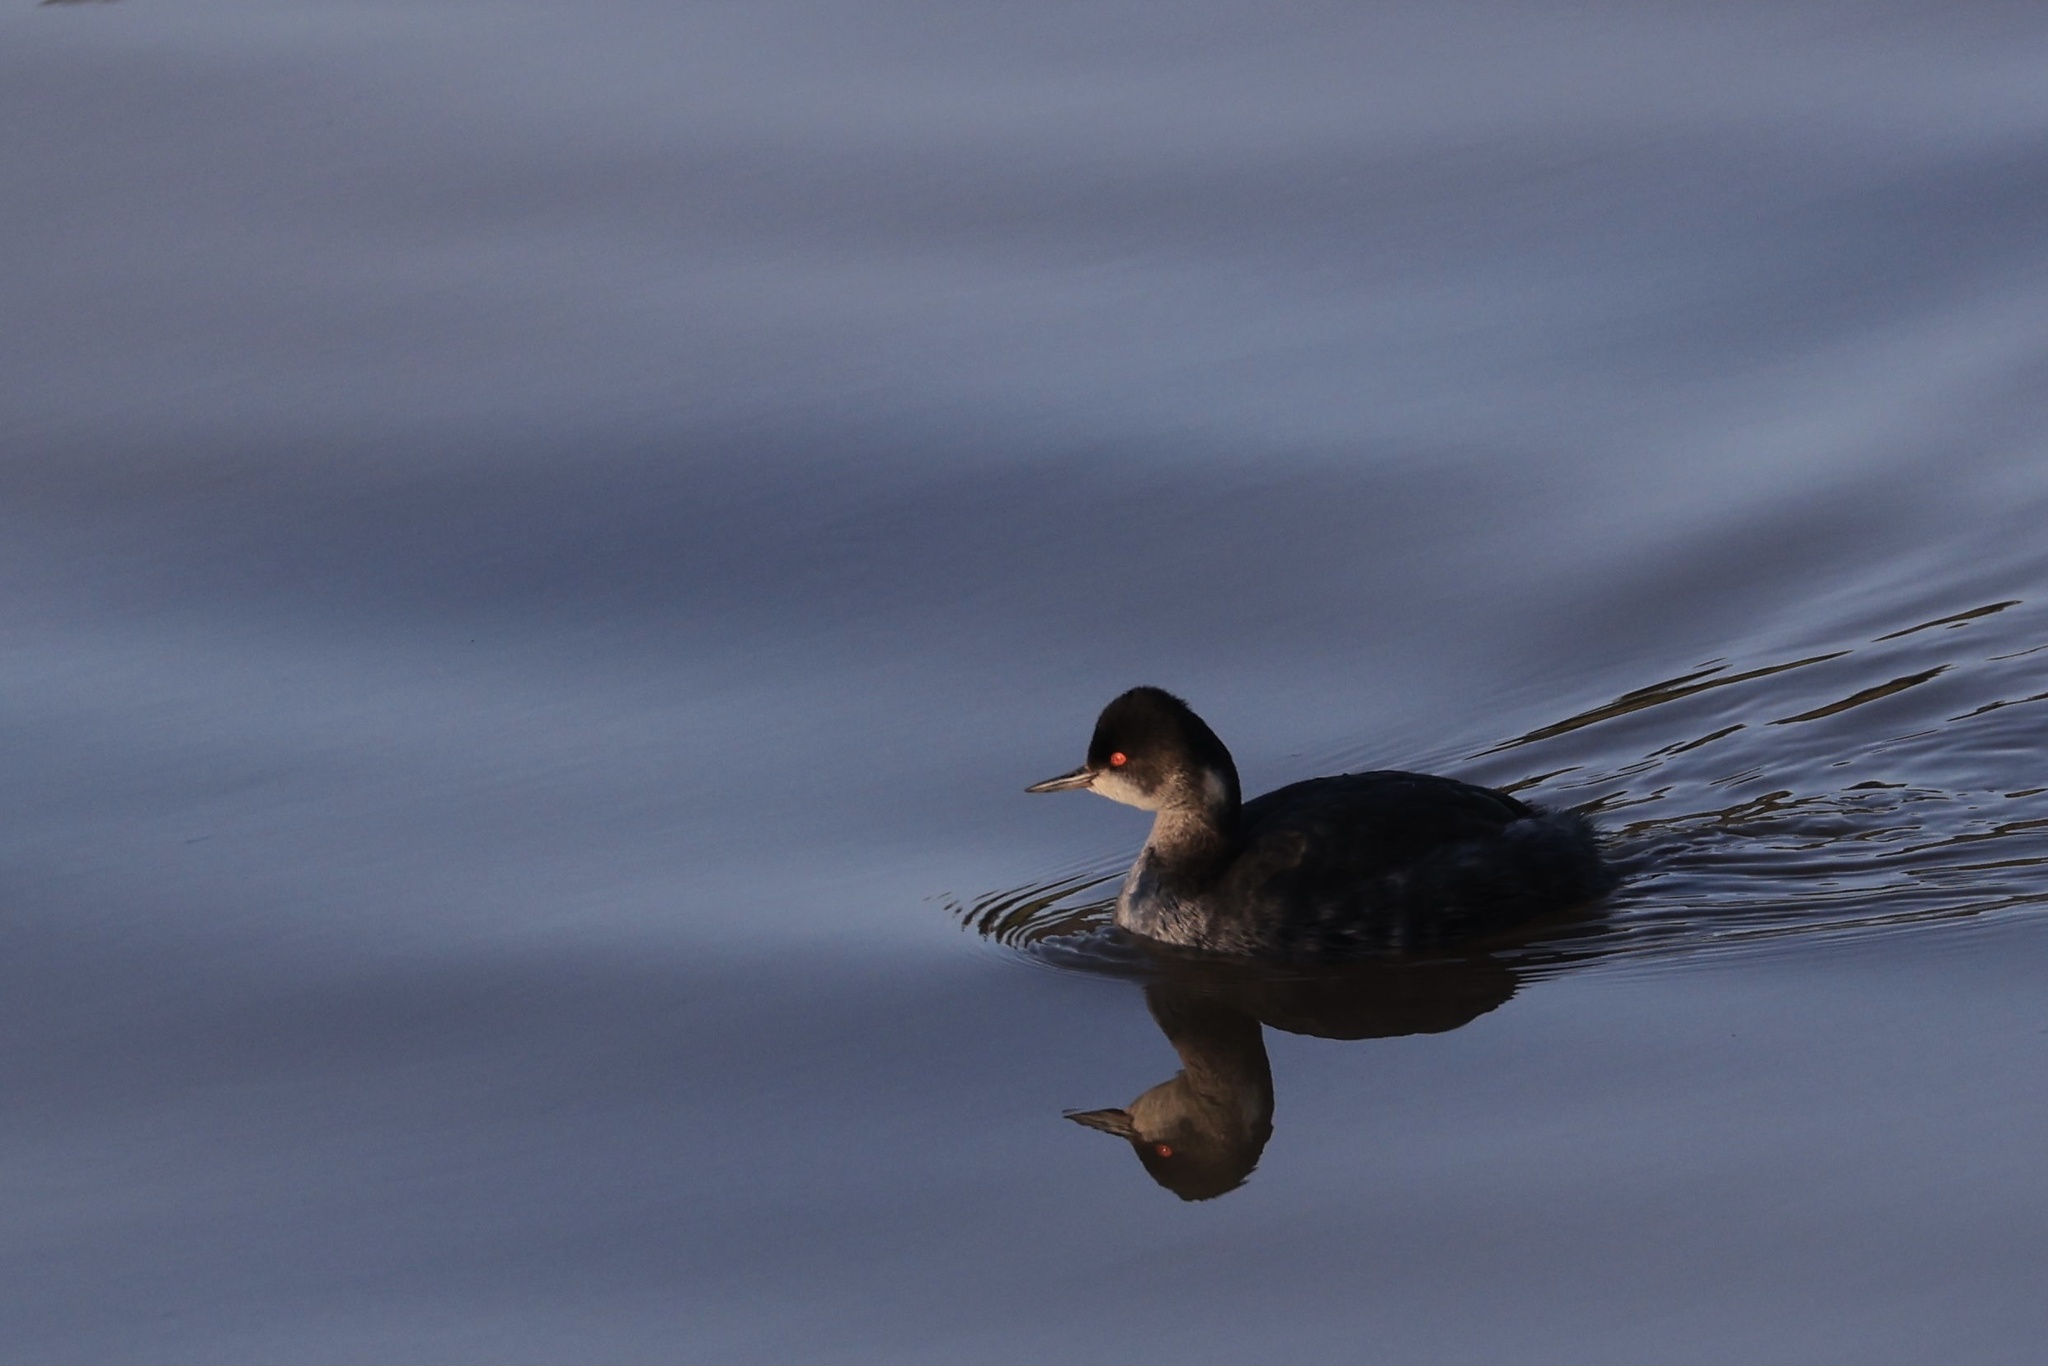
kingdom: Animalia
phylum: Chordata
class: Aves
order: Podicipediformes
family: Podicipedidae
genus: Podiceps
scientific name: Podiceps nigricollis
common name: Black-necked grebe
